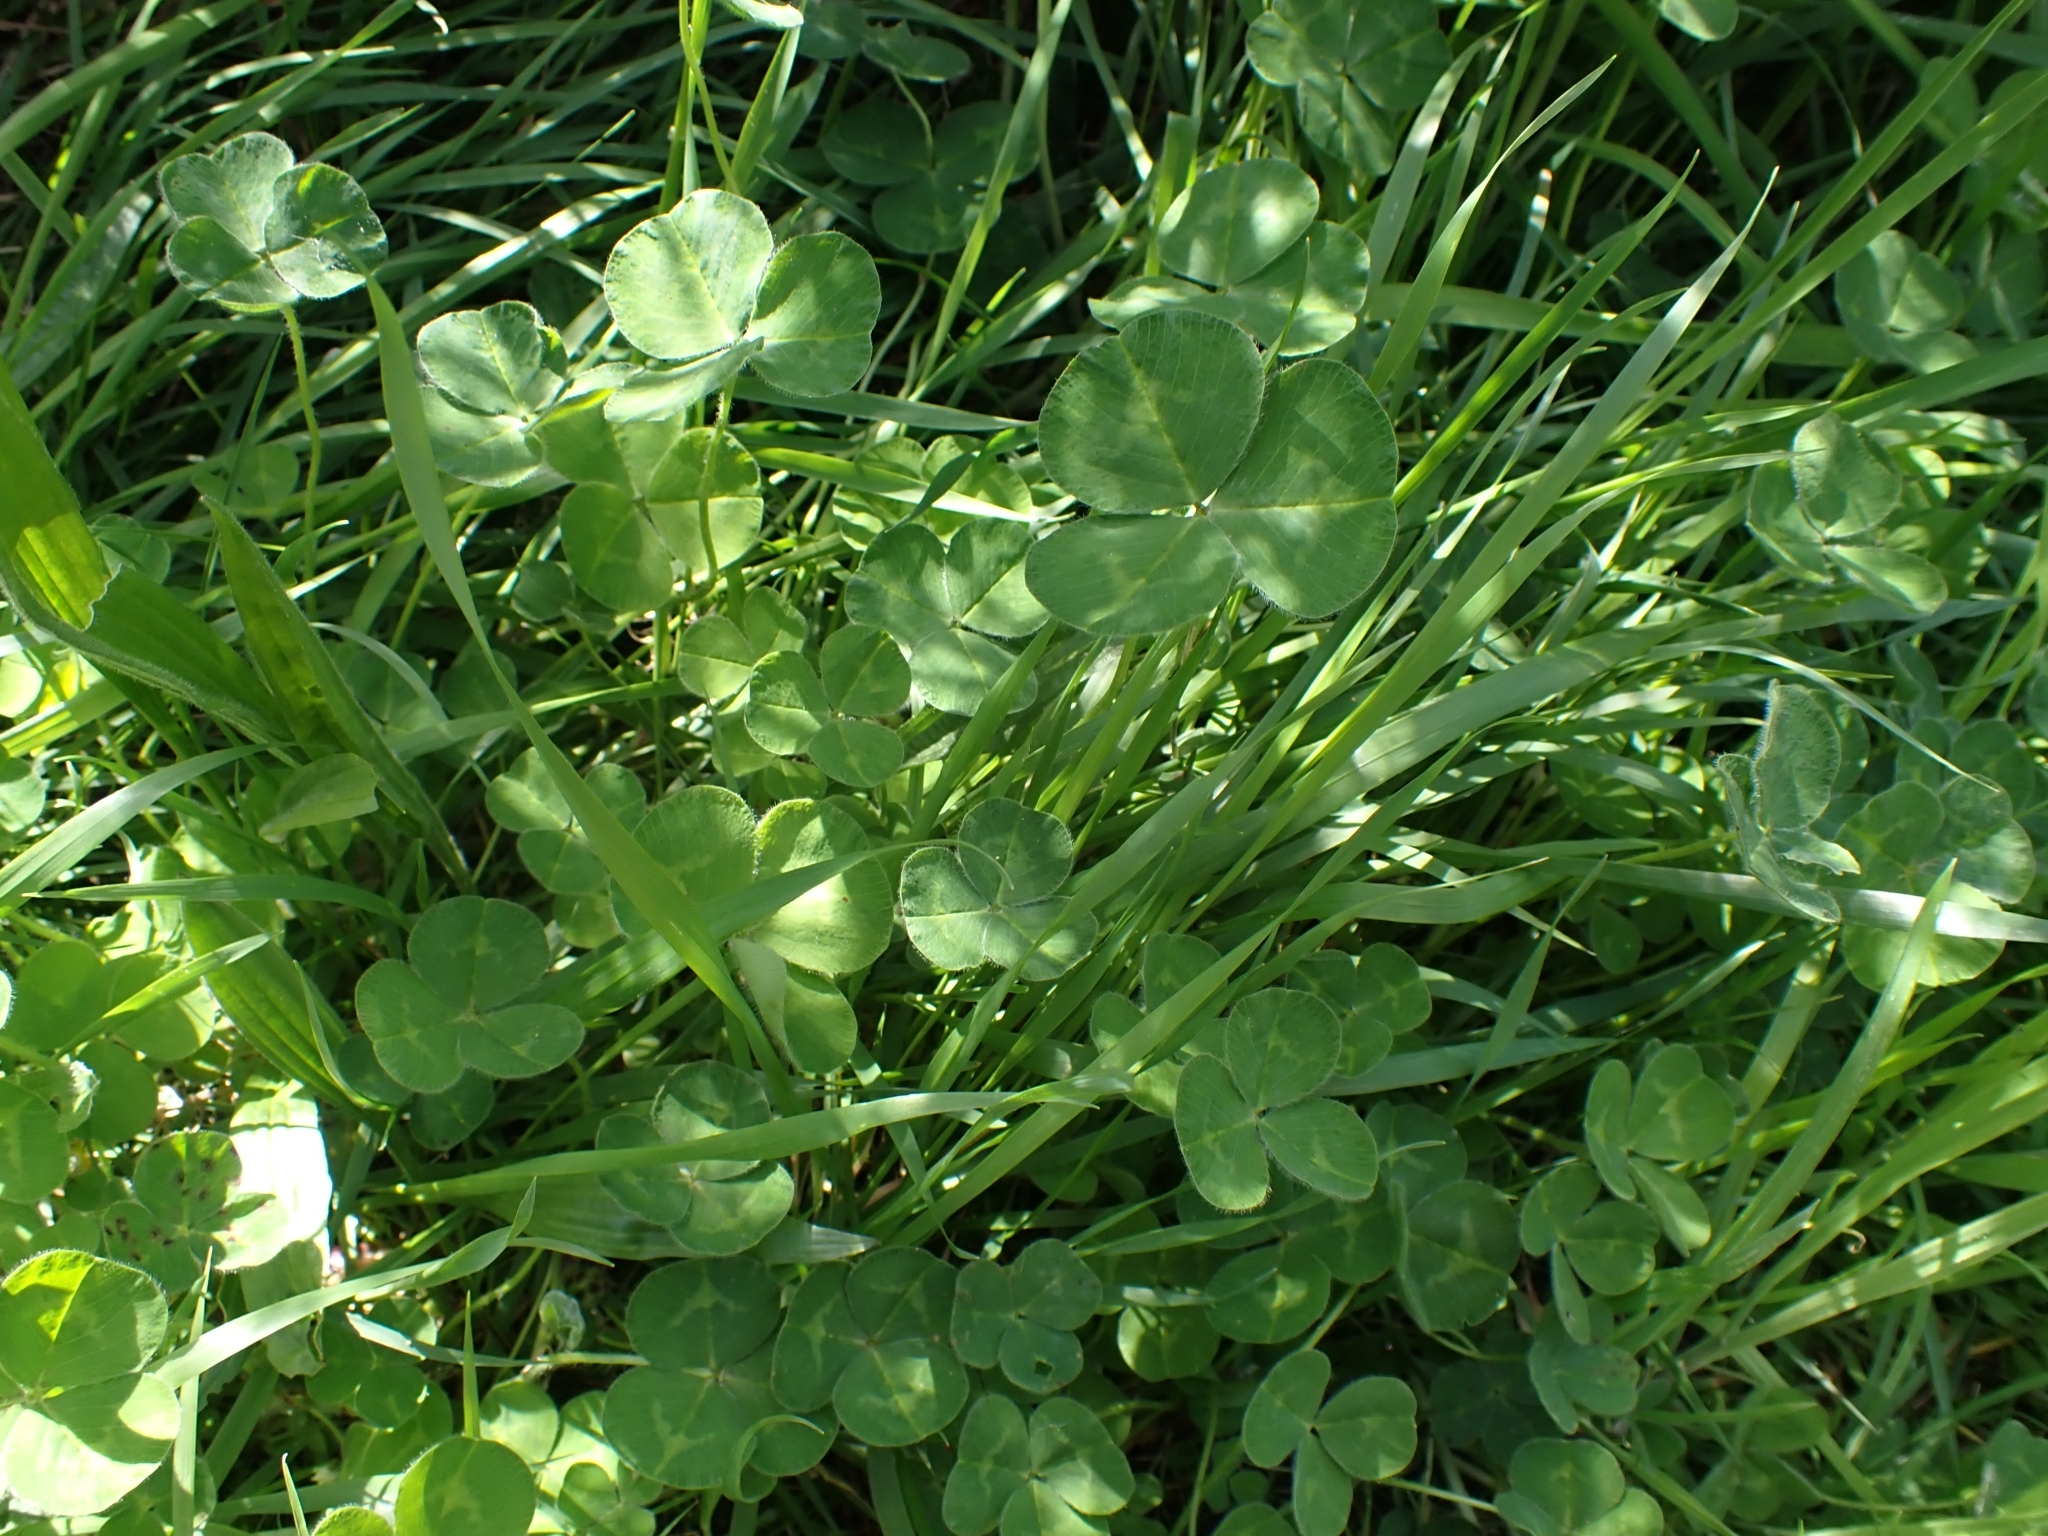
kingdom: Plantae
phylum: Tracheophyta
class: Magnoliopsida
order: Fabales
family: Fabaceae
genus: Trifolium
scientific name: Trifolium repens
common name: White clover
